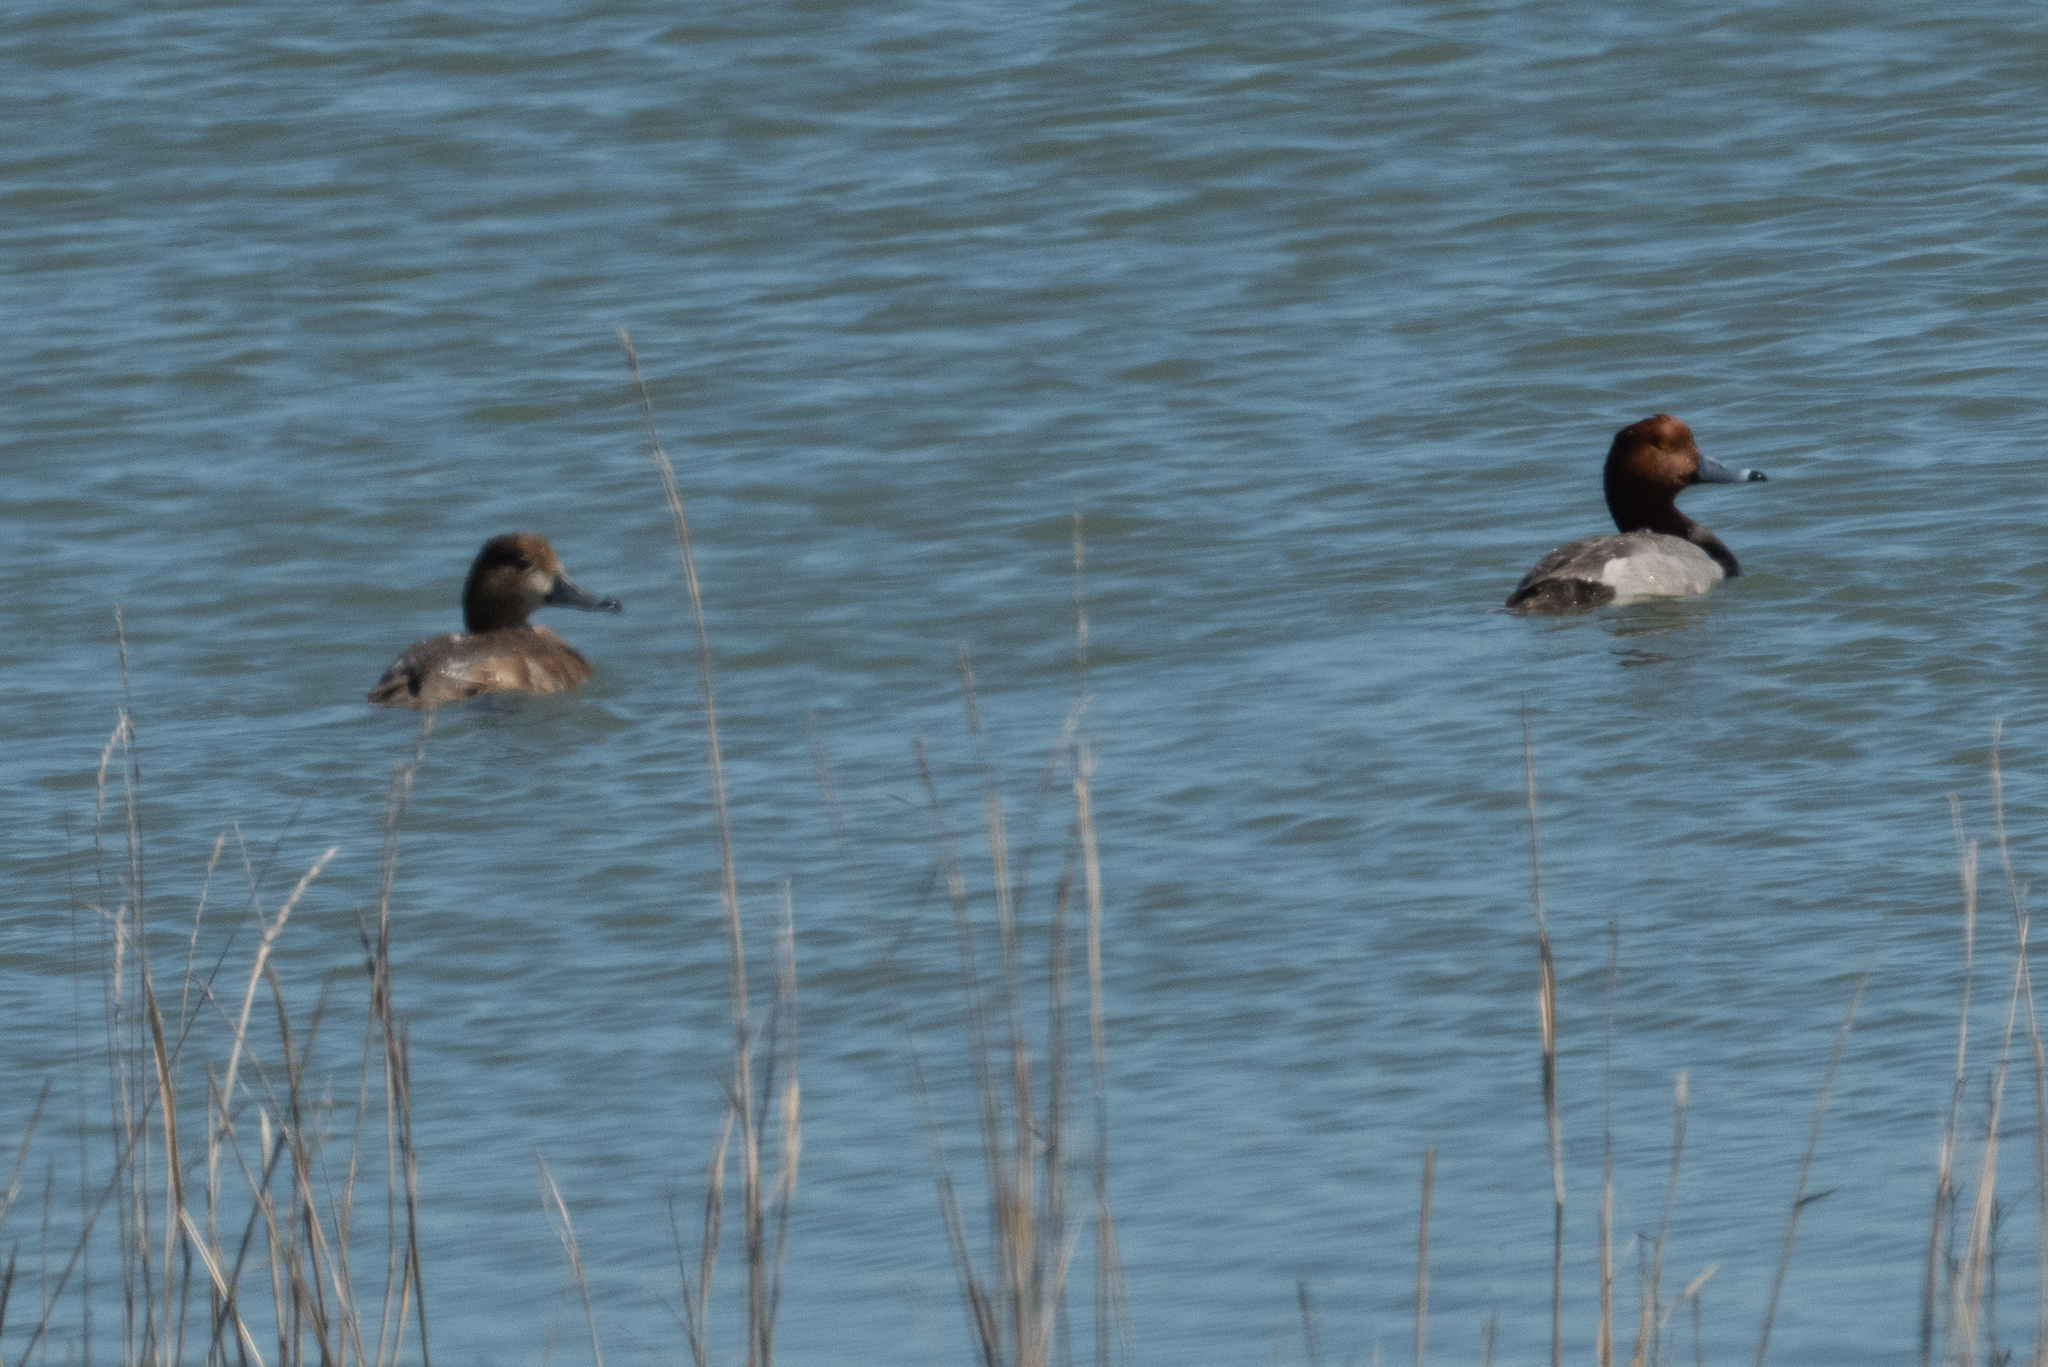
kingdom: Animalia
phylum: Chordata
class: Aves
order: Anseriformes
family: Anatidae
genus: Aythya
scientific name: Aythya americana
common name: Redhead
